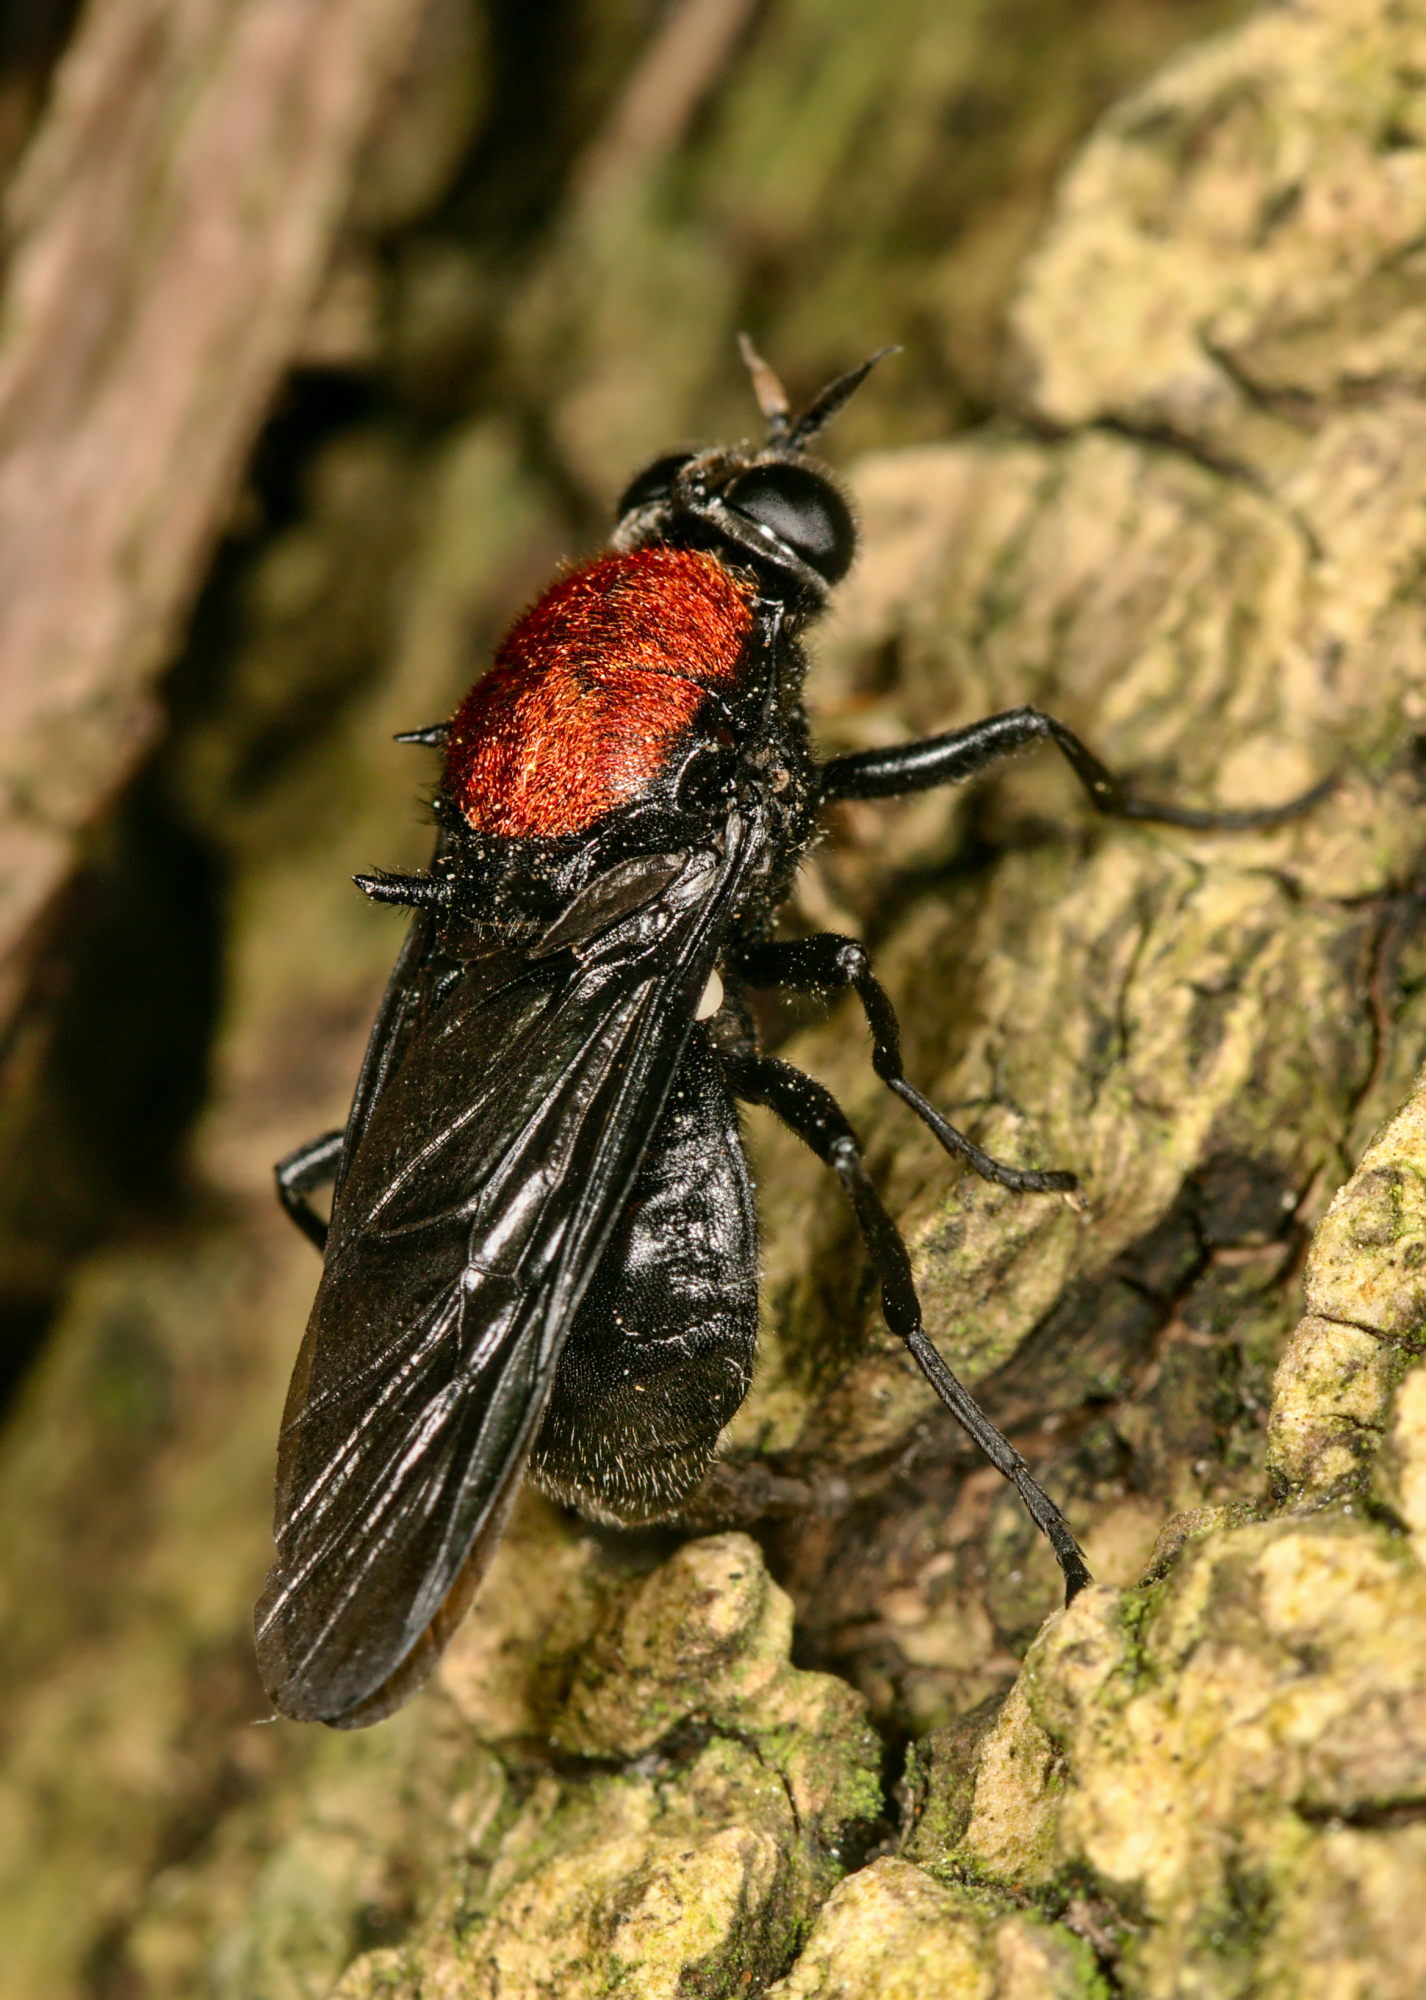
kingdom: Animalia
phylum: Arthropoda
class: Insecta
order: Diptera
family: Stratiomyidae
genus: Clitellaria
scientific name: Clitellaria ephippium
